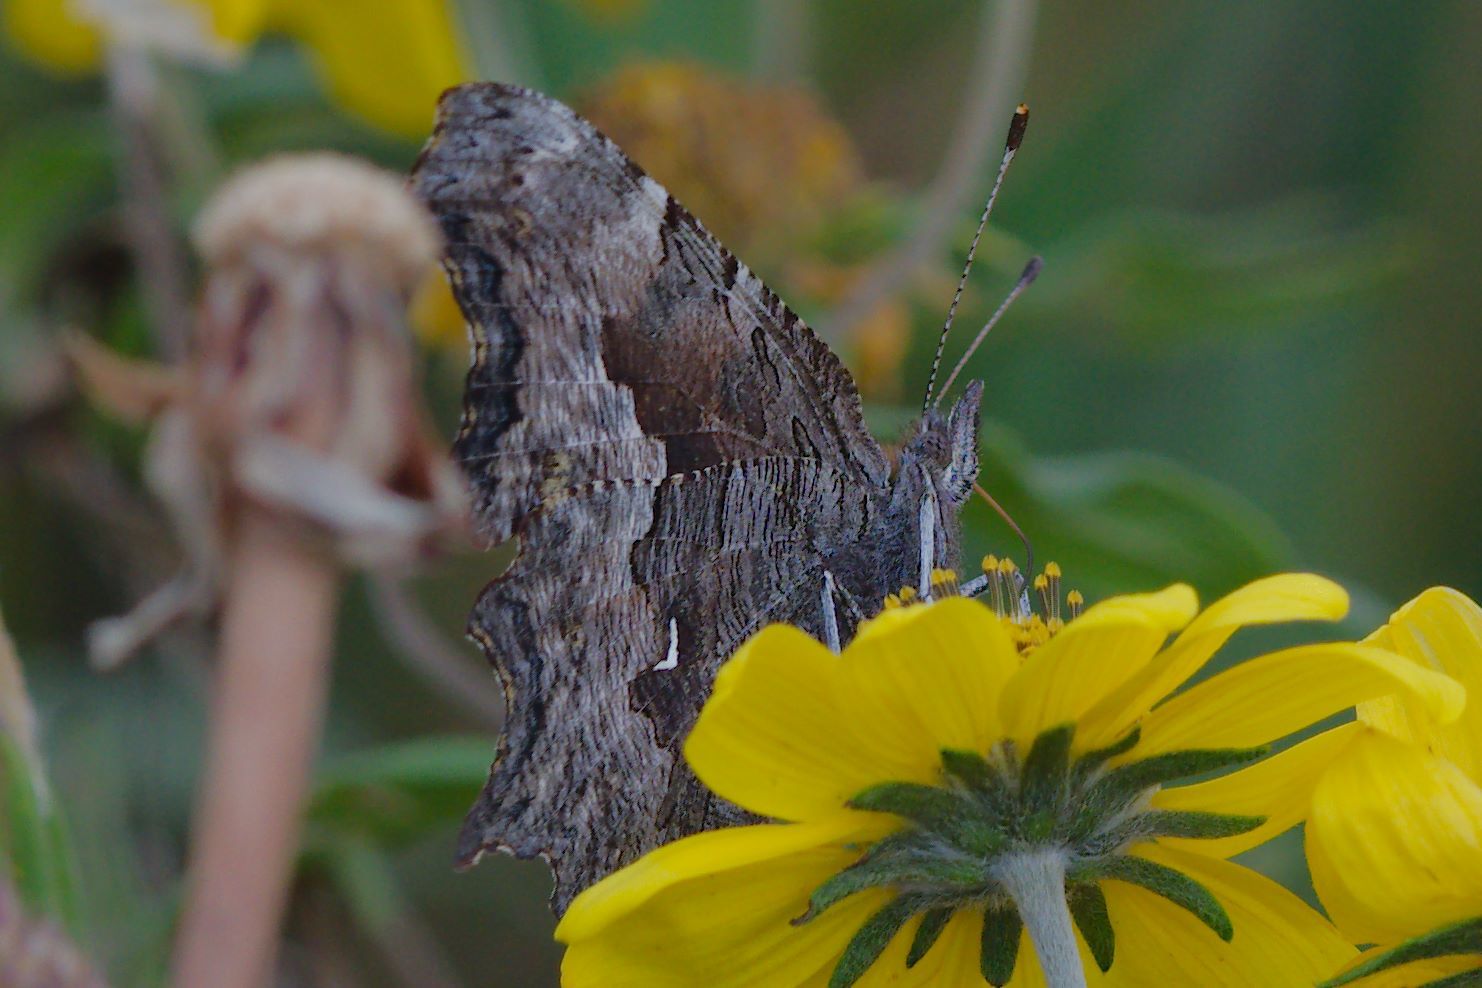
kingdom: Animalia
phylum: Arthropoda
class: Insecta
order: Lepidoptera
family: Nymphalidae
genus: Polygonia
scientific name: Polygonia gracilis
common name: Hoary comma
